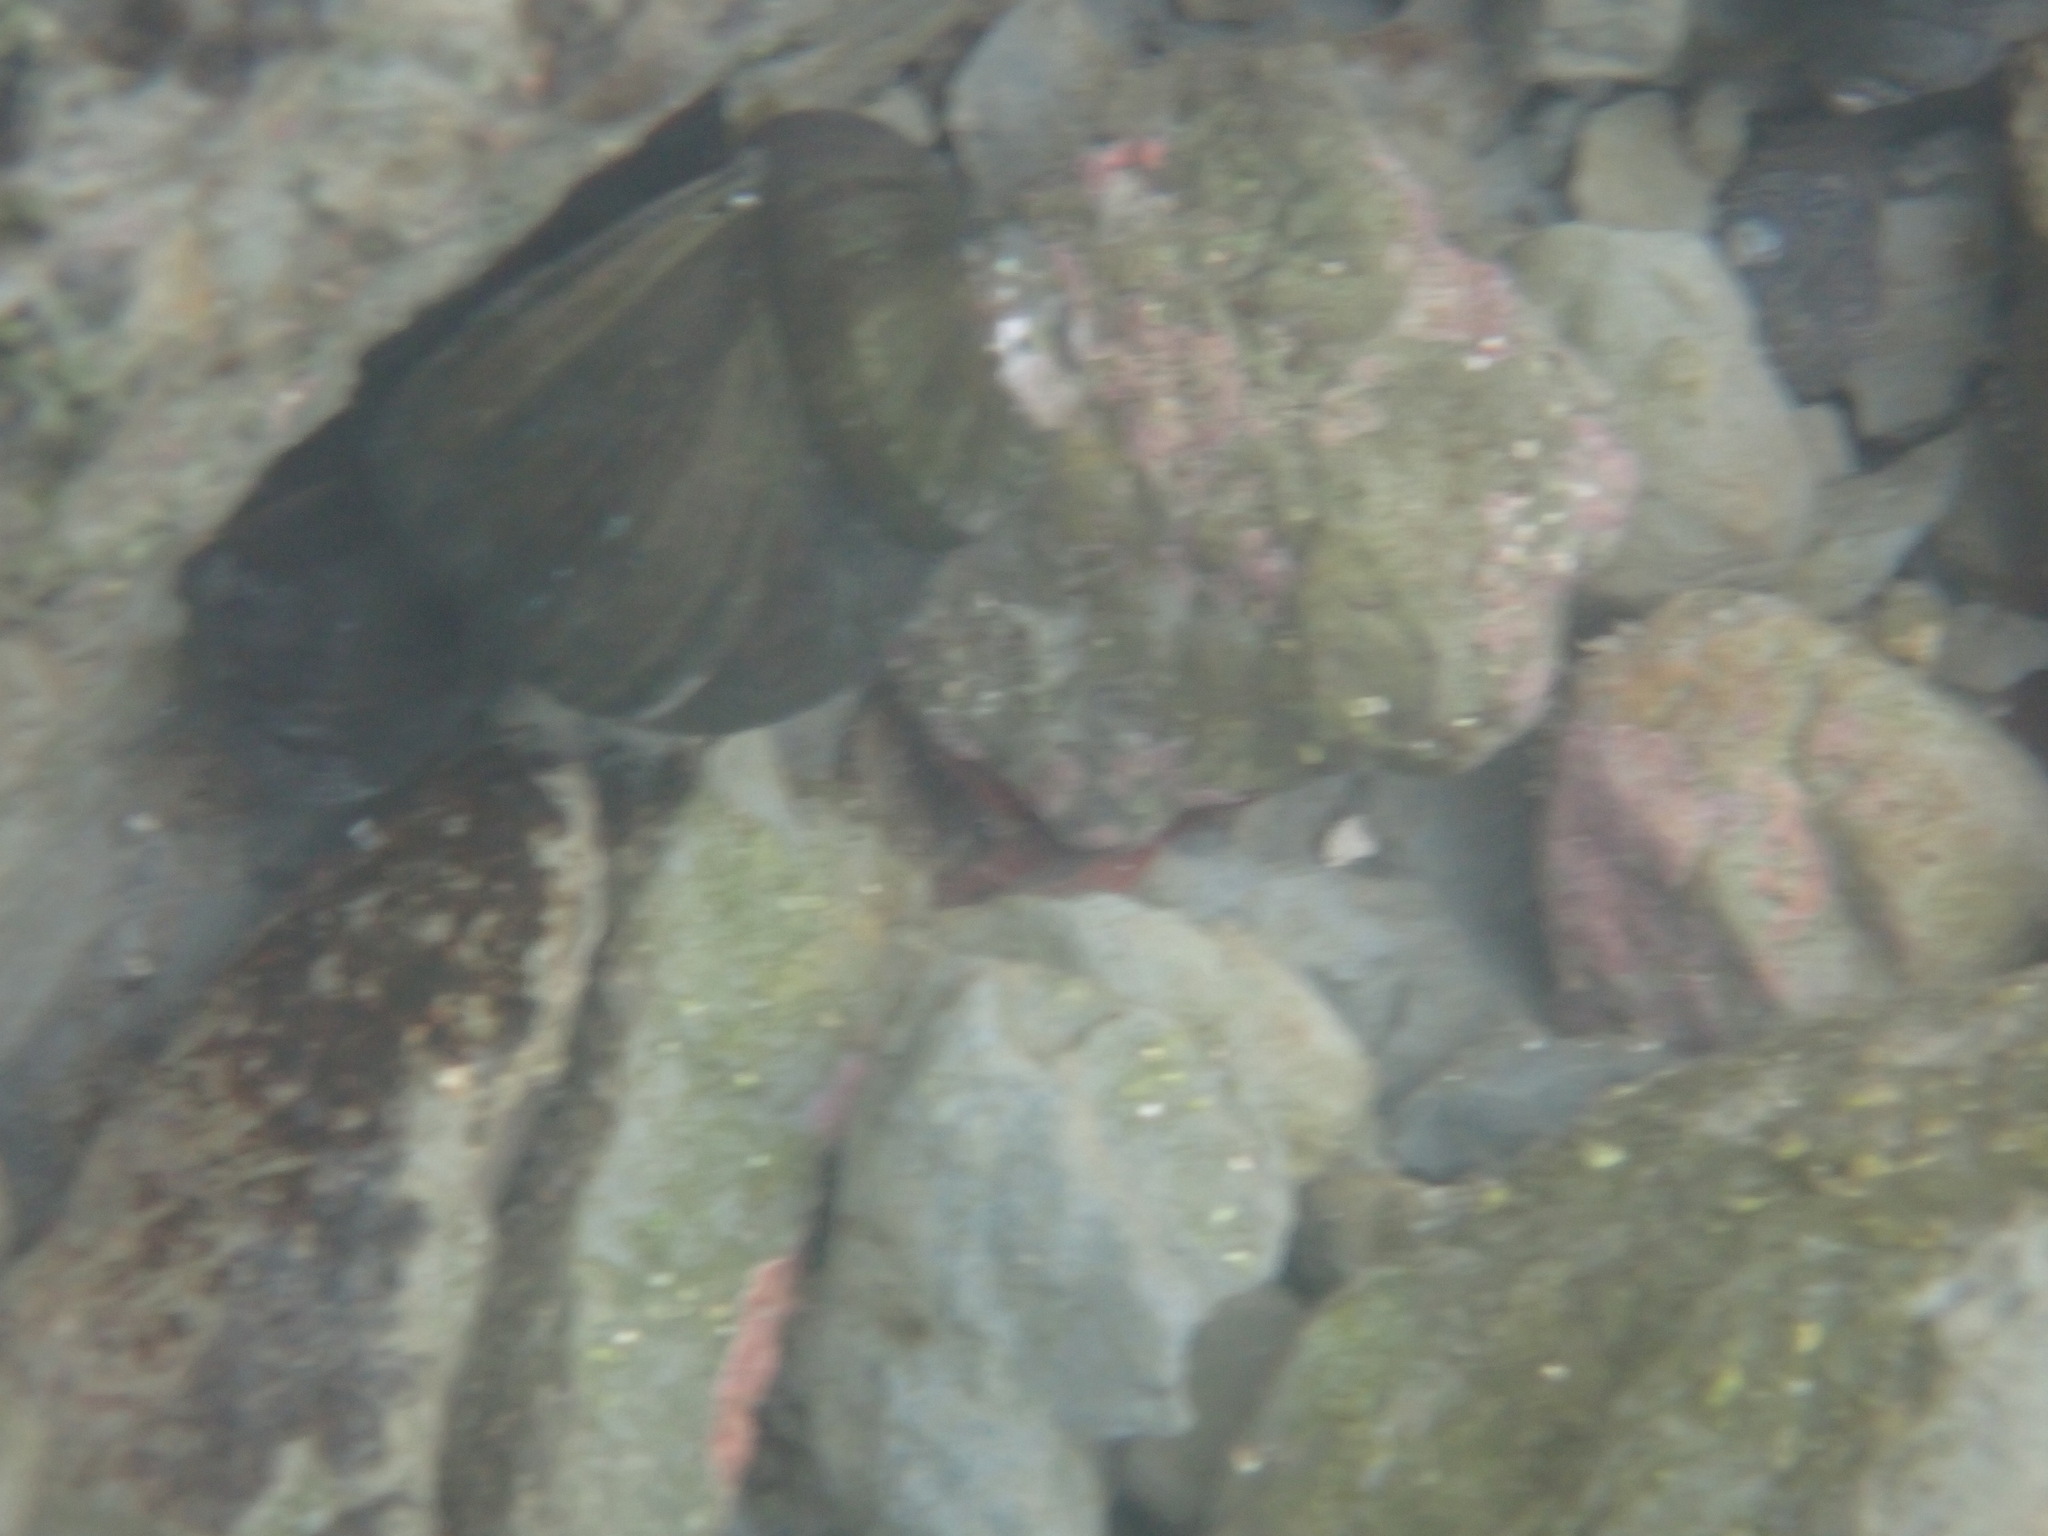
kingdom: Animalia
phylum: Mollusca
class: Gastropoda
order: Trochida
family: Turbinidae
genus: Lunella
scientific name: Lunella smaragda
